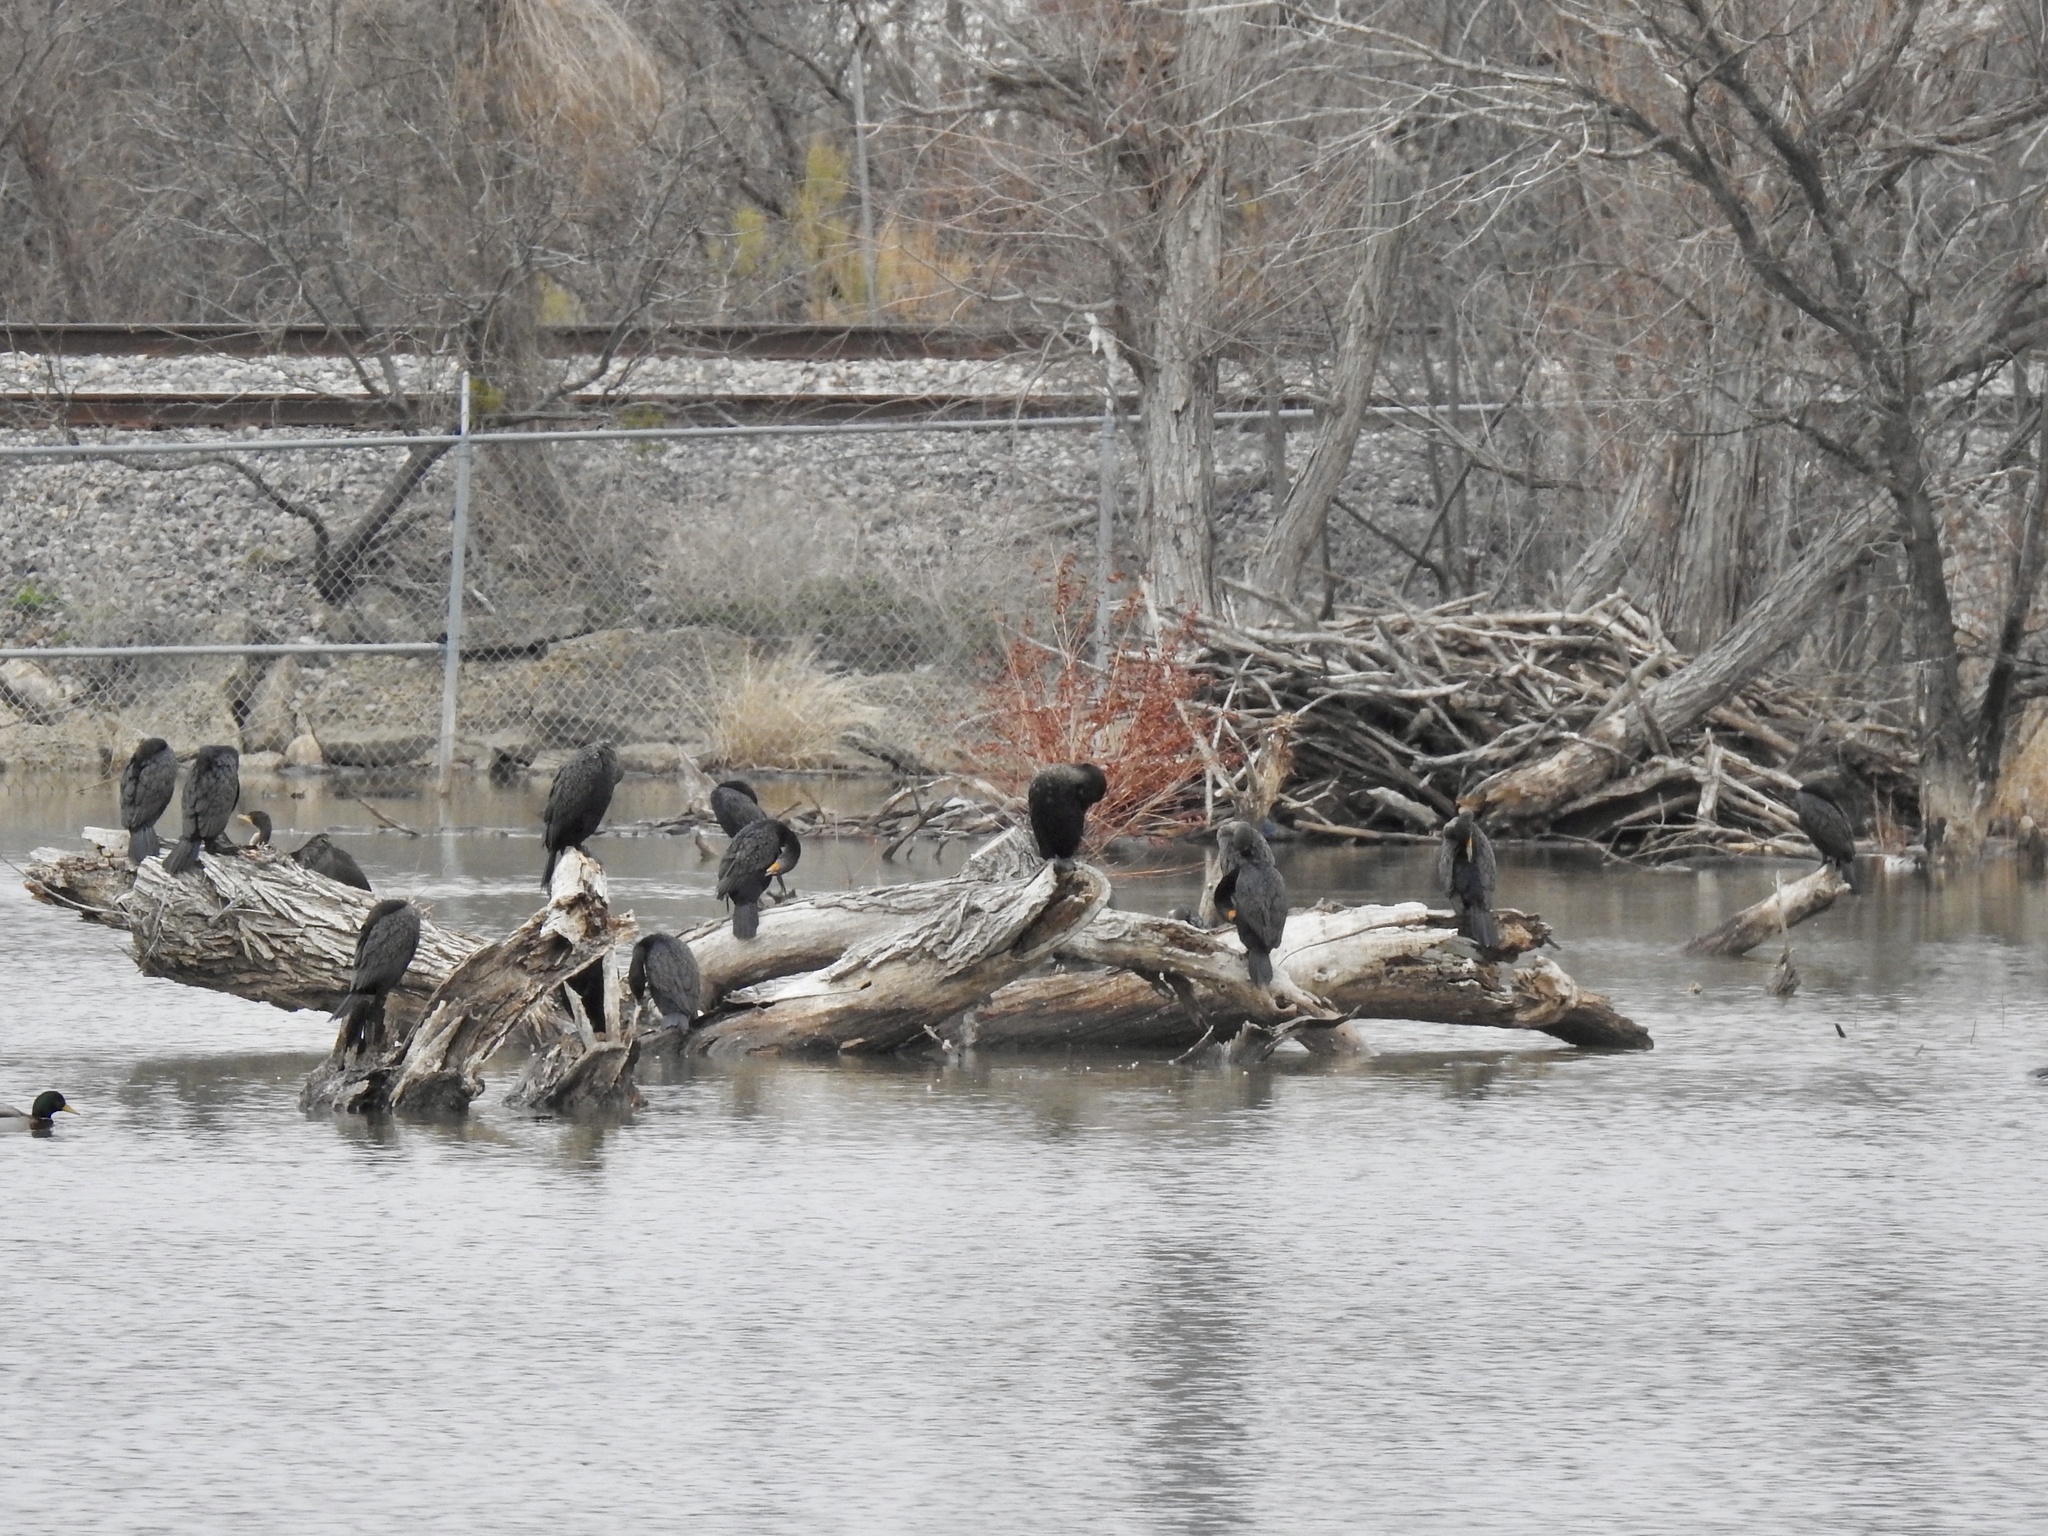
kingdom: Animalia
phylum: Chordata
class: Aves
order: Suliformes
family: Phalacrocoracidae
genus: Phalacrocorax
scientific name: Phalacrocorax auritus
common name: Double-crested cormorant
